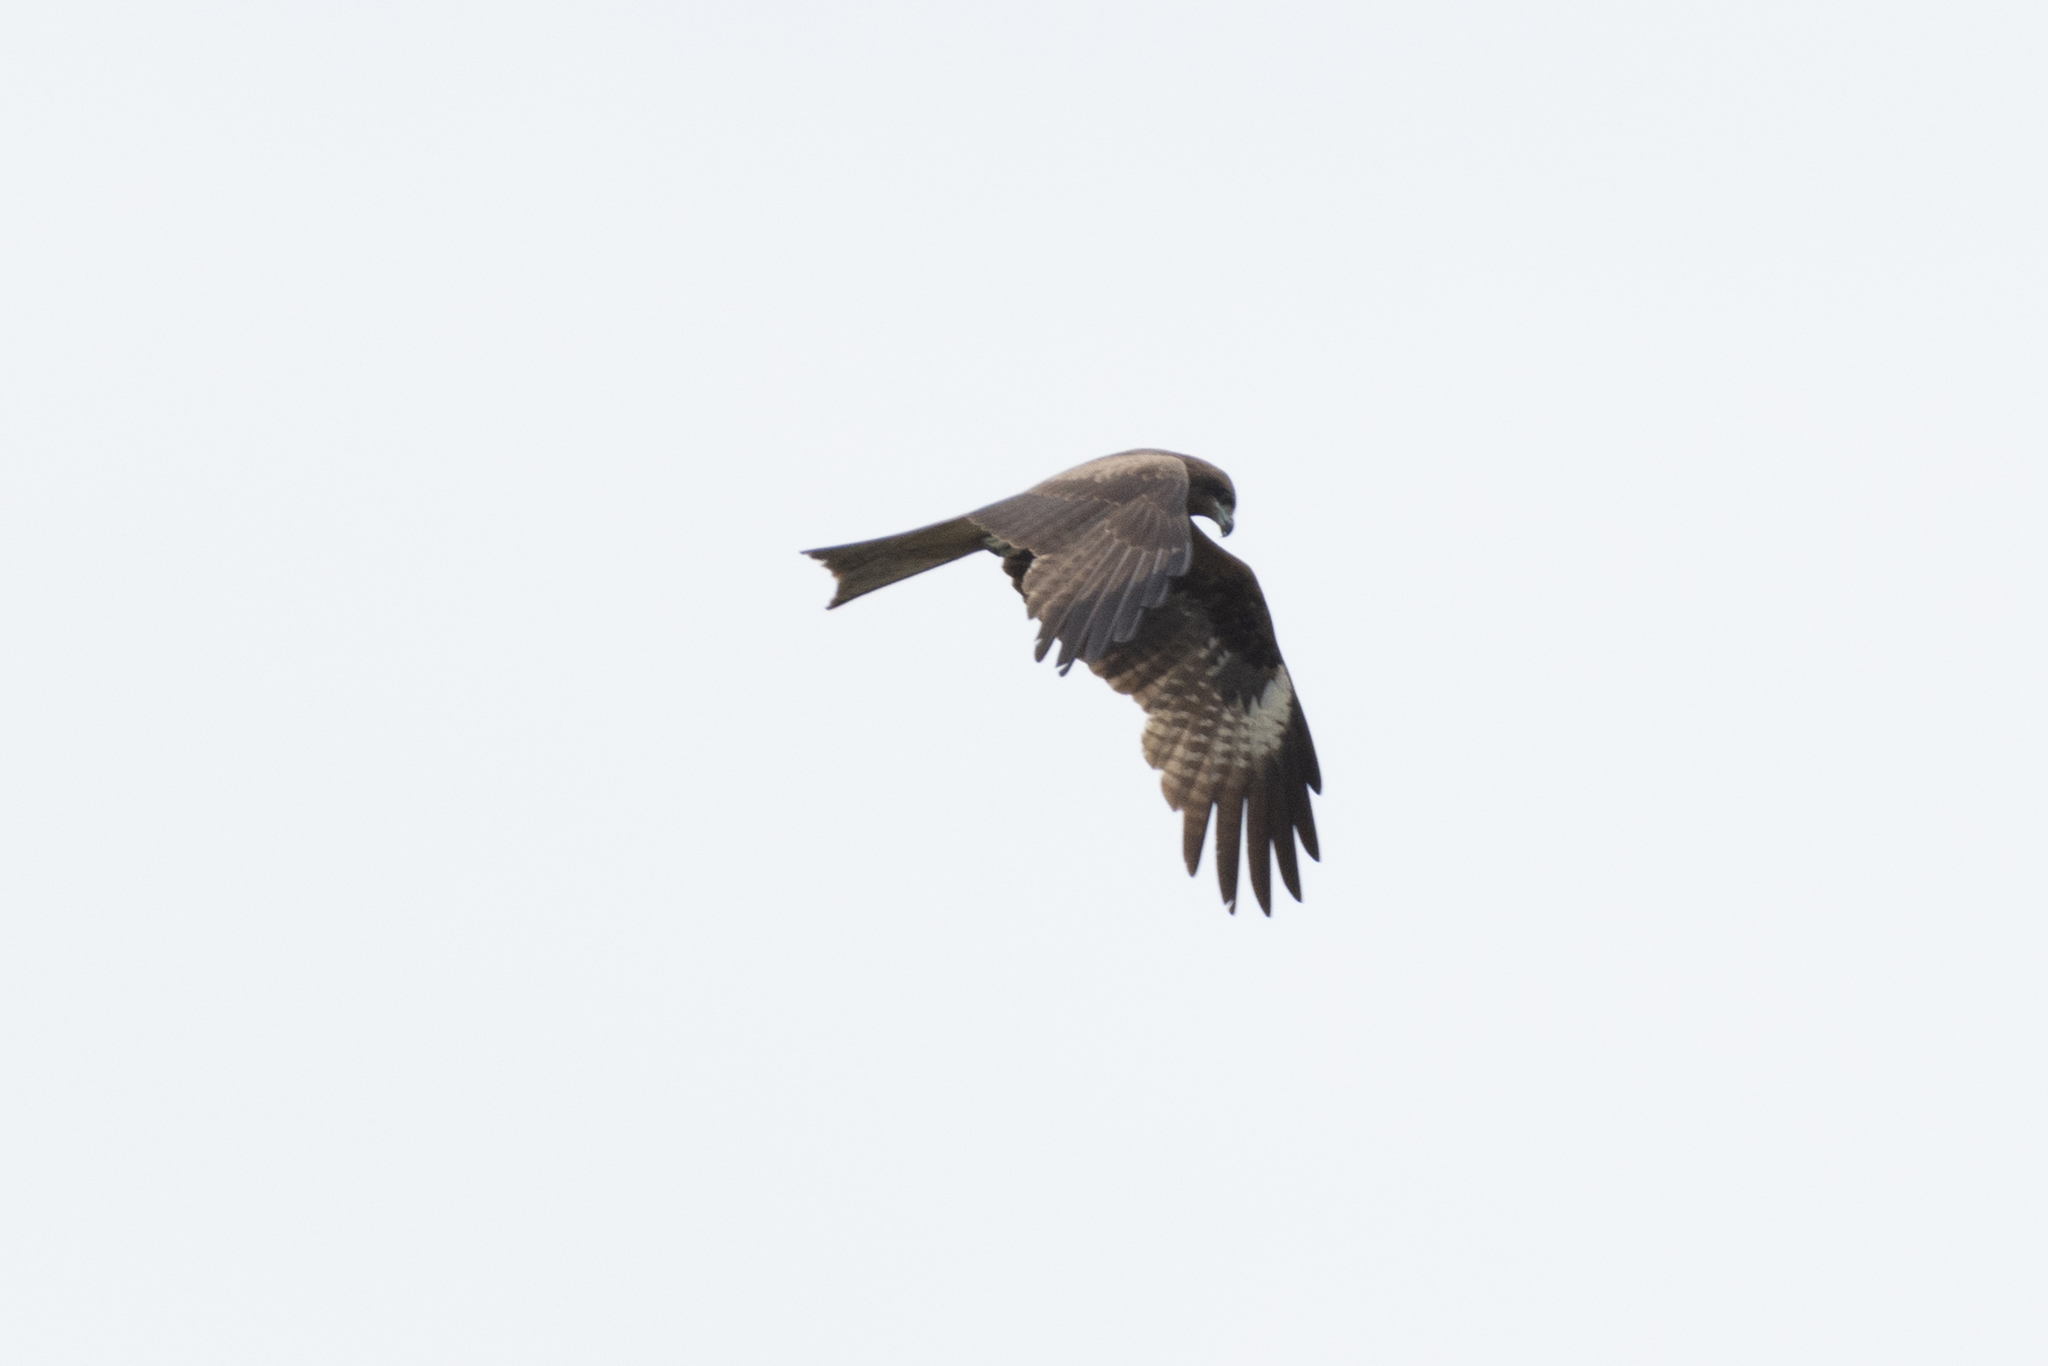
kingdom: Animalia
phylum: Chordata
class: Aves
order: Accipitriformes
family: Accipitridae
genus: Milvus
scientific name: Milvus migrans
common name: Black kite
